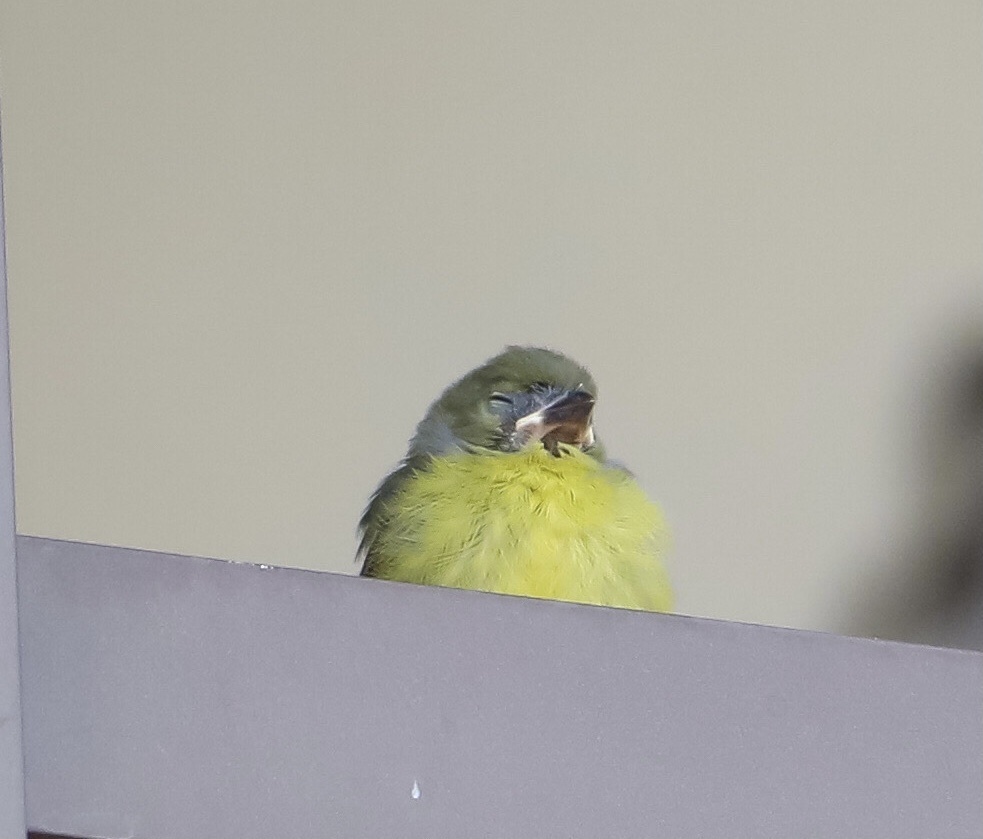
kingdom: Animalia
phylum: Chordata
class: Aves
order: Passeriformes
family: Fringillidae
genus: Euphonia
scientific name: Euphonia laniirostris
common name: Thick-billed euphonia
